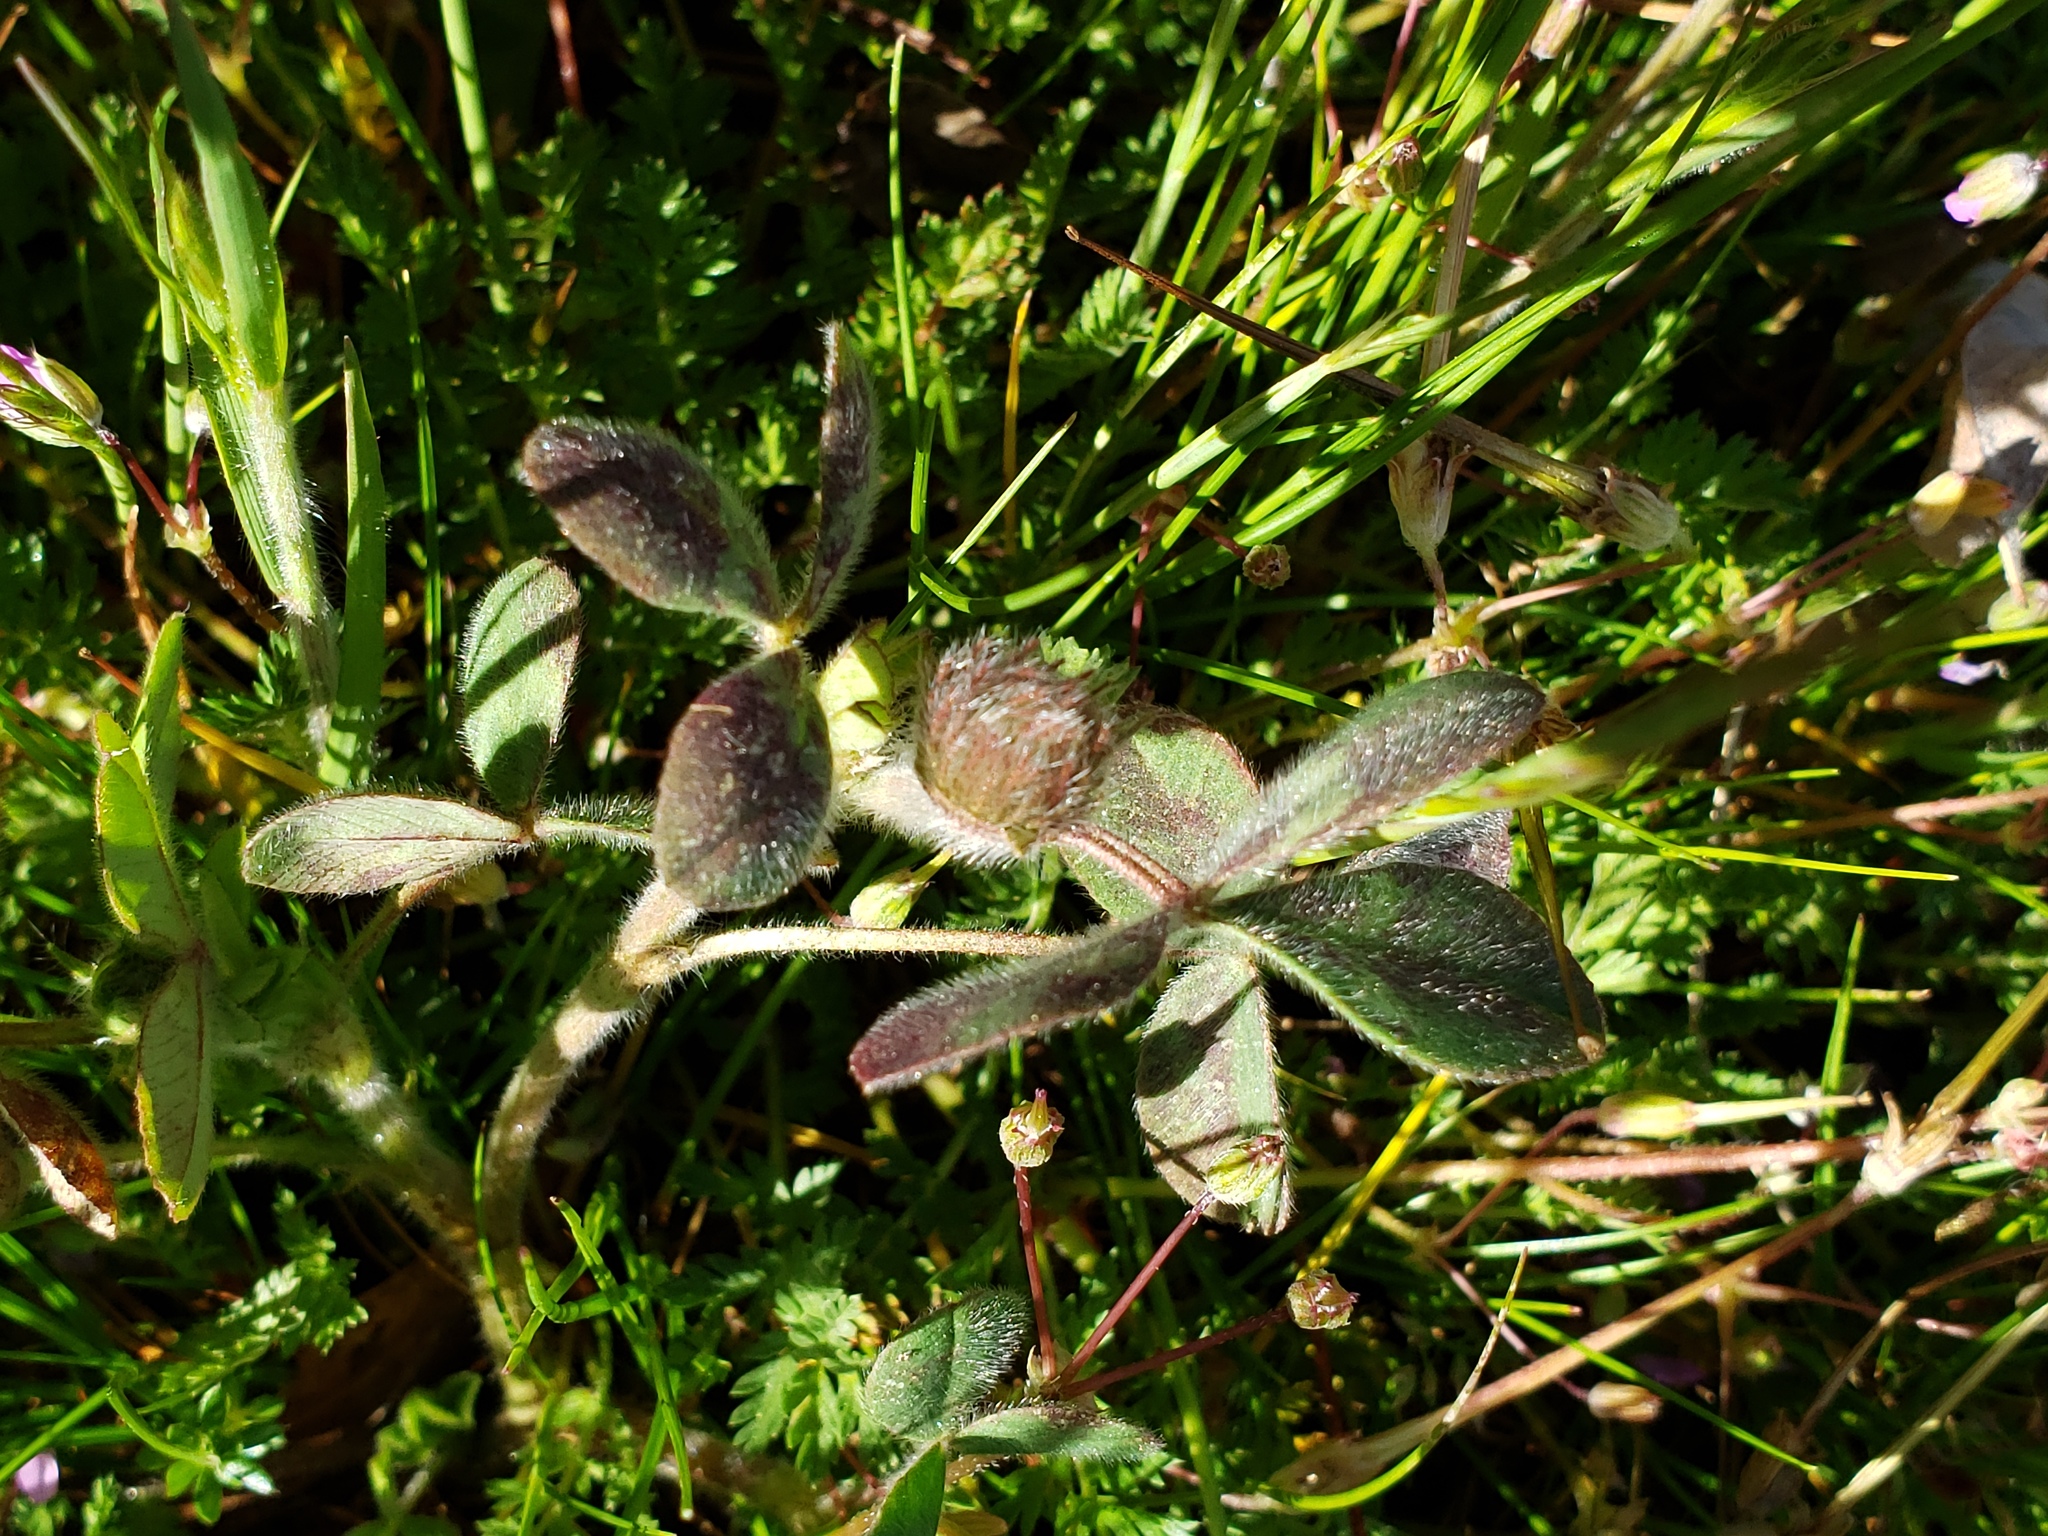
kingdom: Plantae
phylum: Tracheophyta
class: Magnoliopsida
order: Fabales
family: Fabaceae
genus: Trifolium
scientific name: Trifolium hirtum
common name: Rose clover
